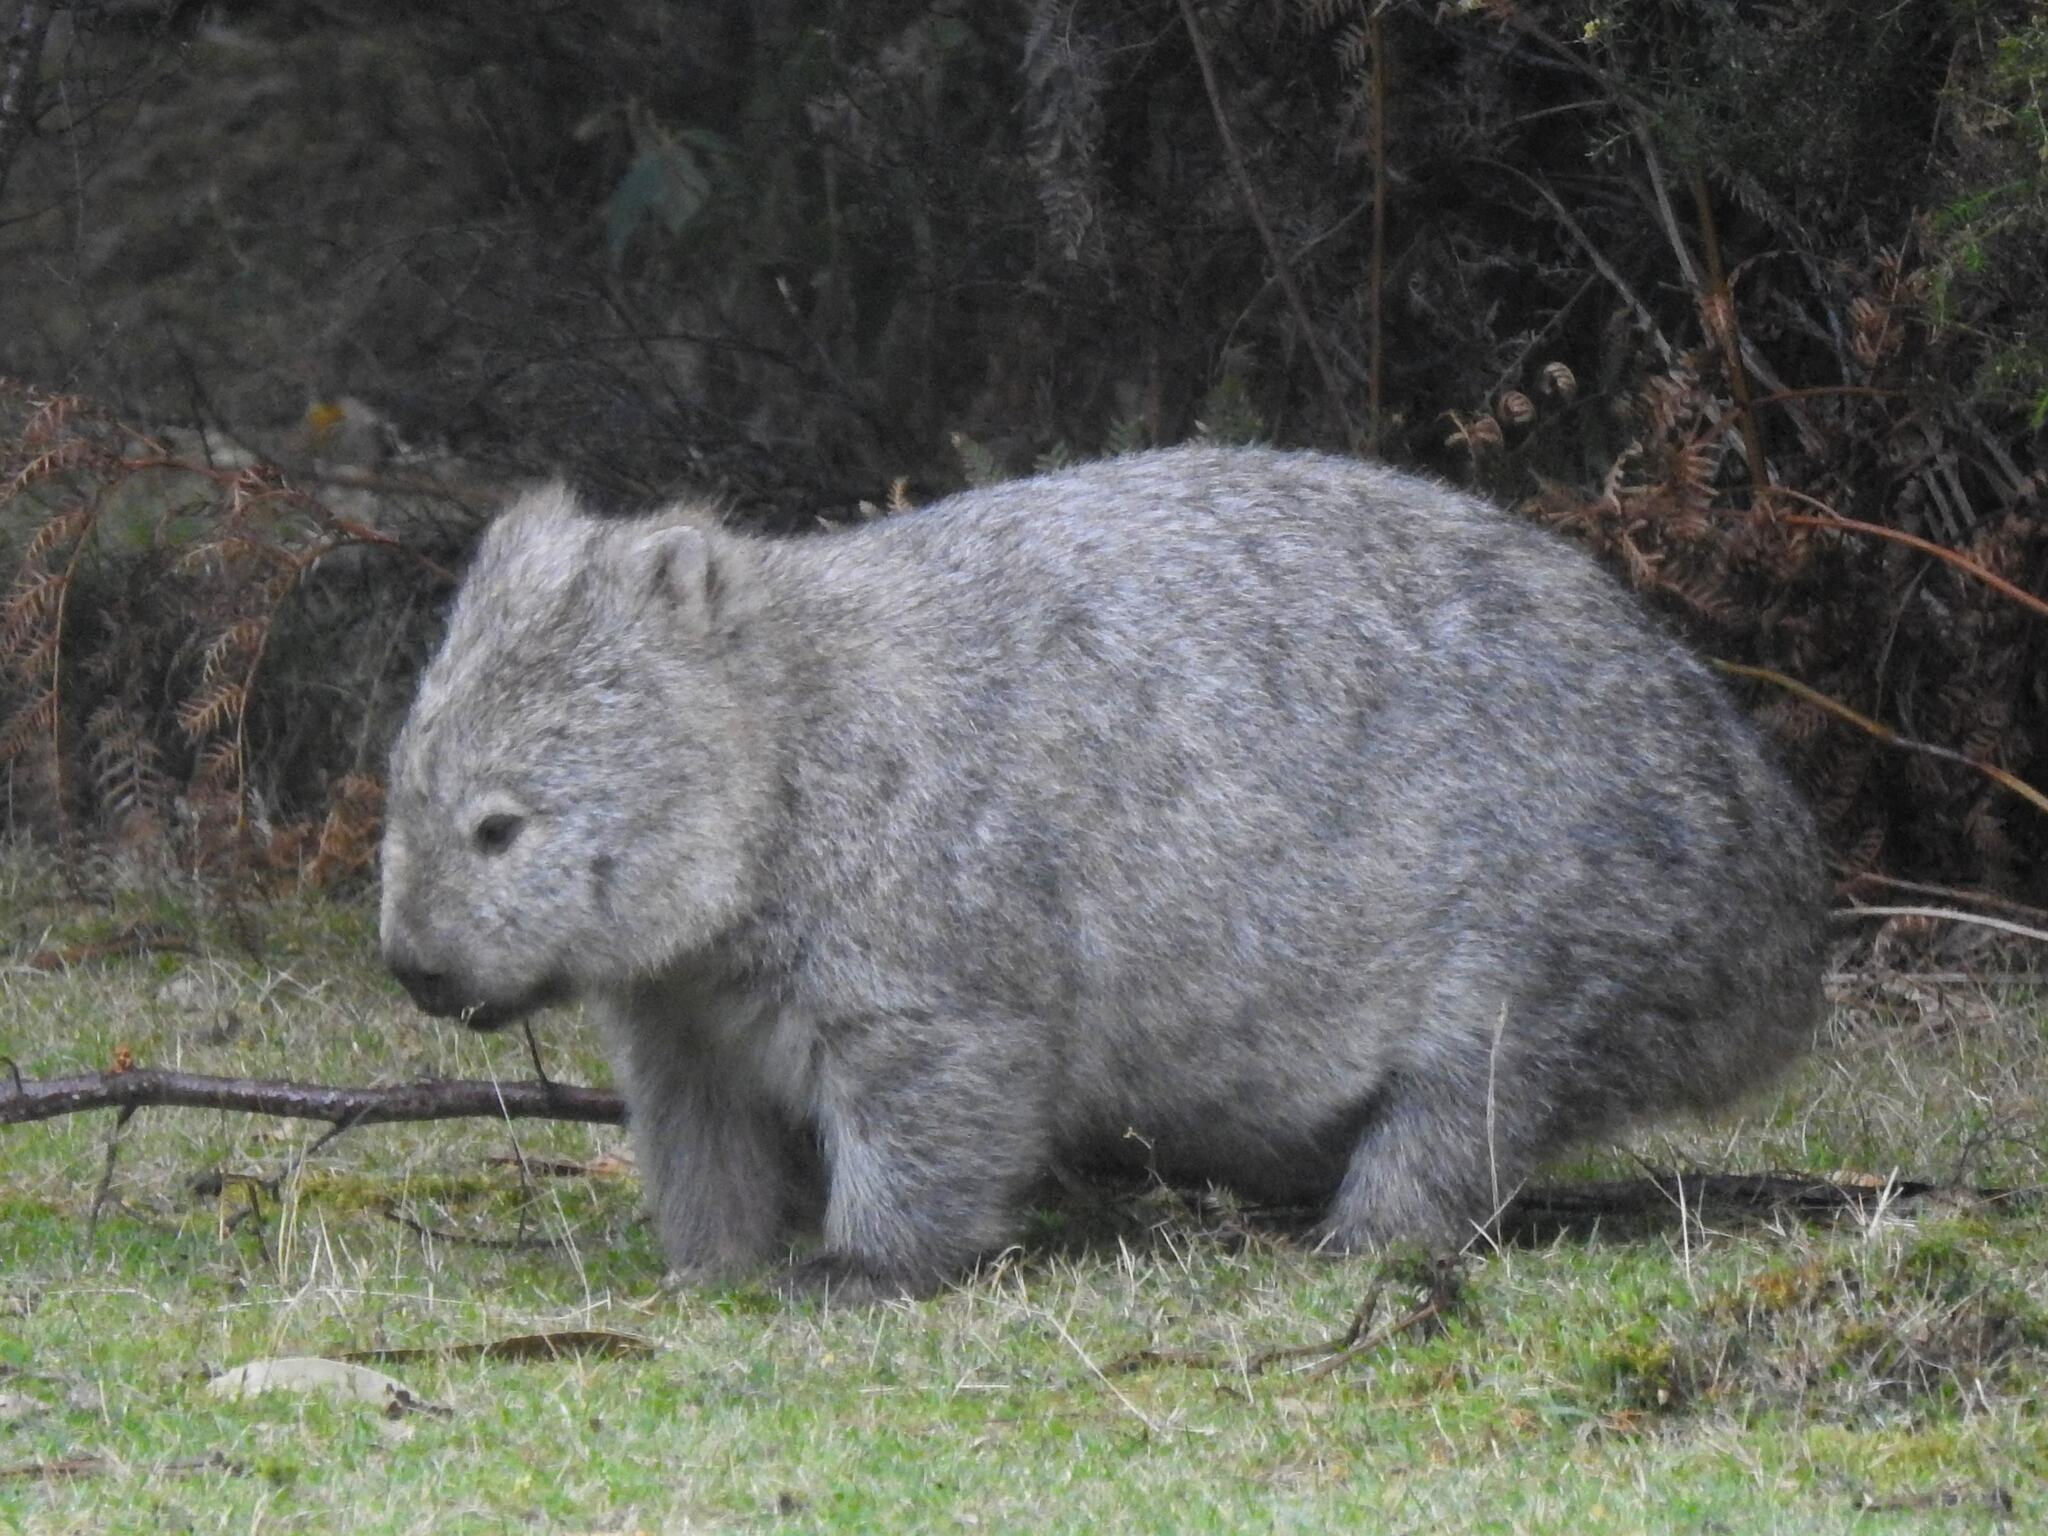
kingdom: Animalia
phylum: Chordata
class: Mammalia
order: Diprotodontia
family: Vombatidae
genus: Vombatus
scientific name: Vombatus ursinus
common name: Common wombat
